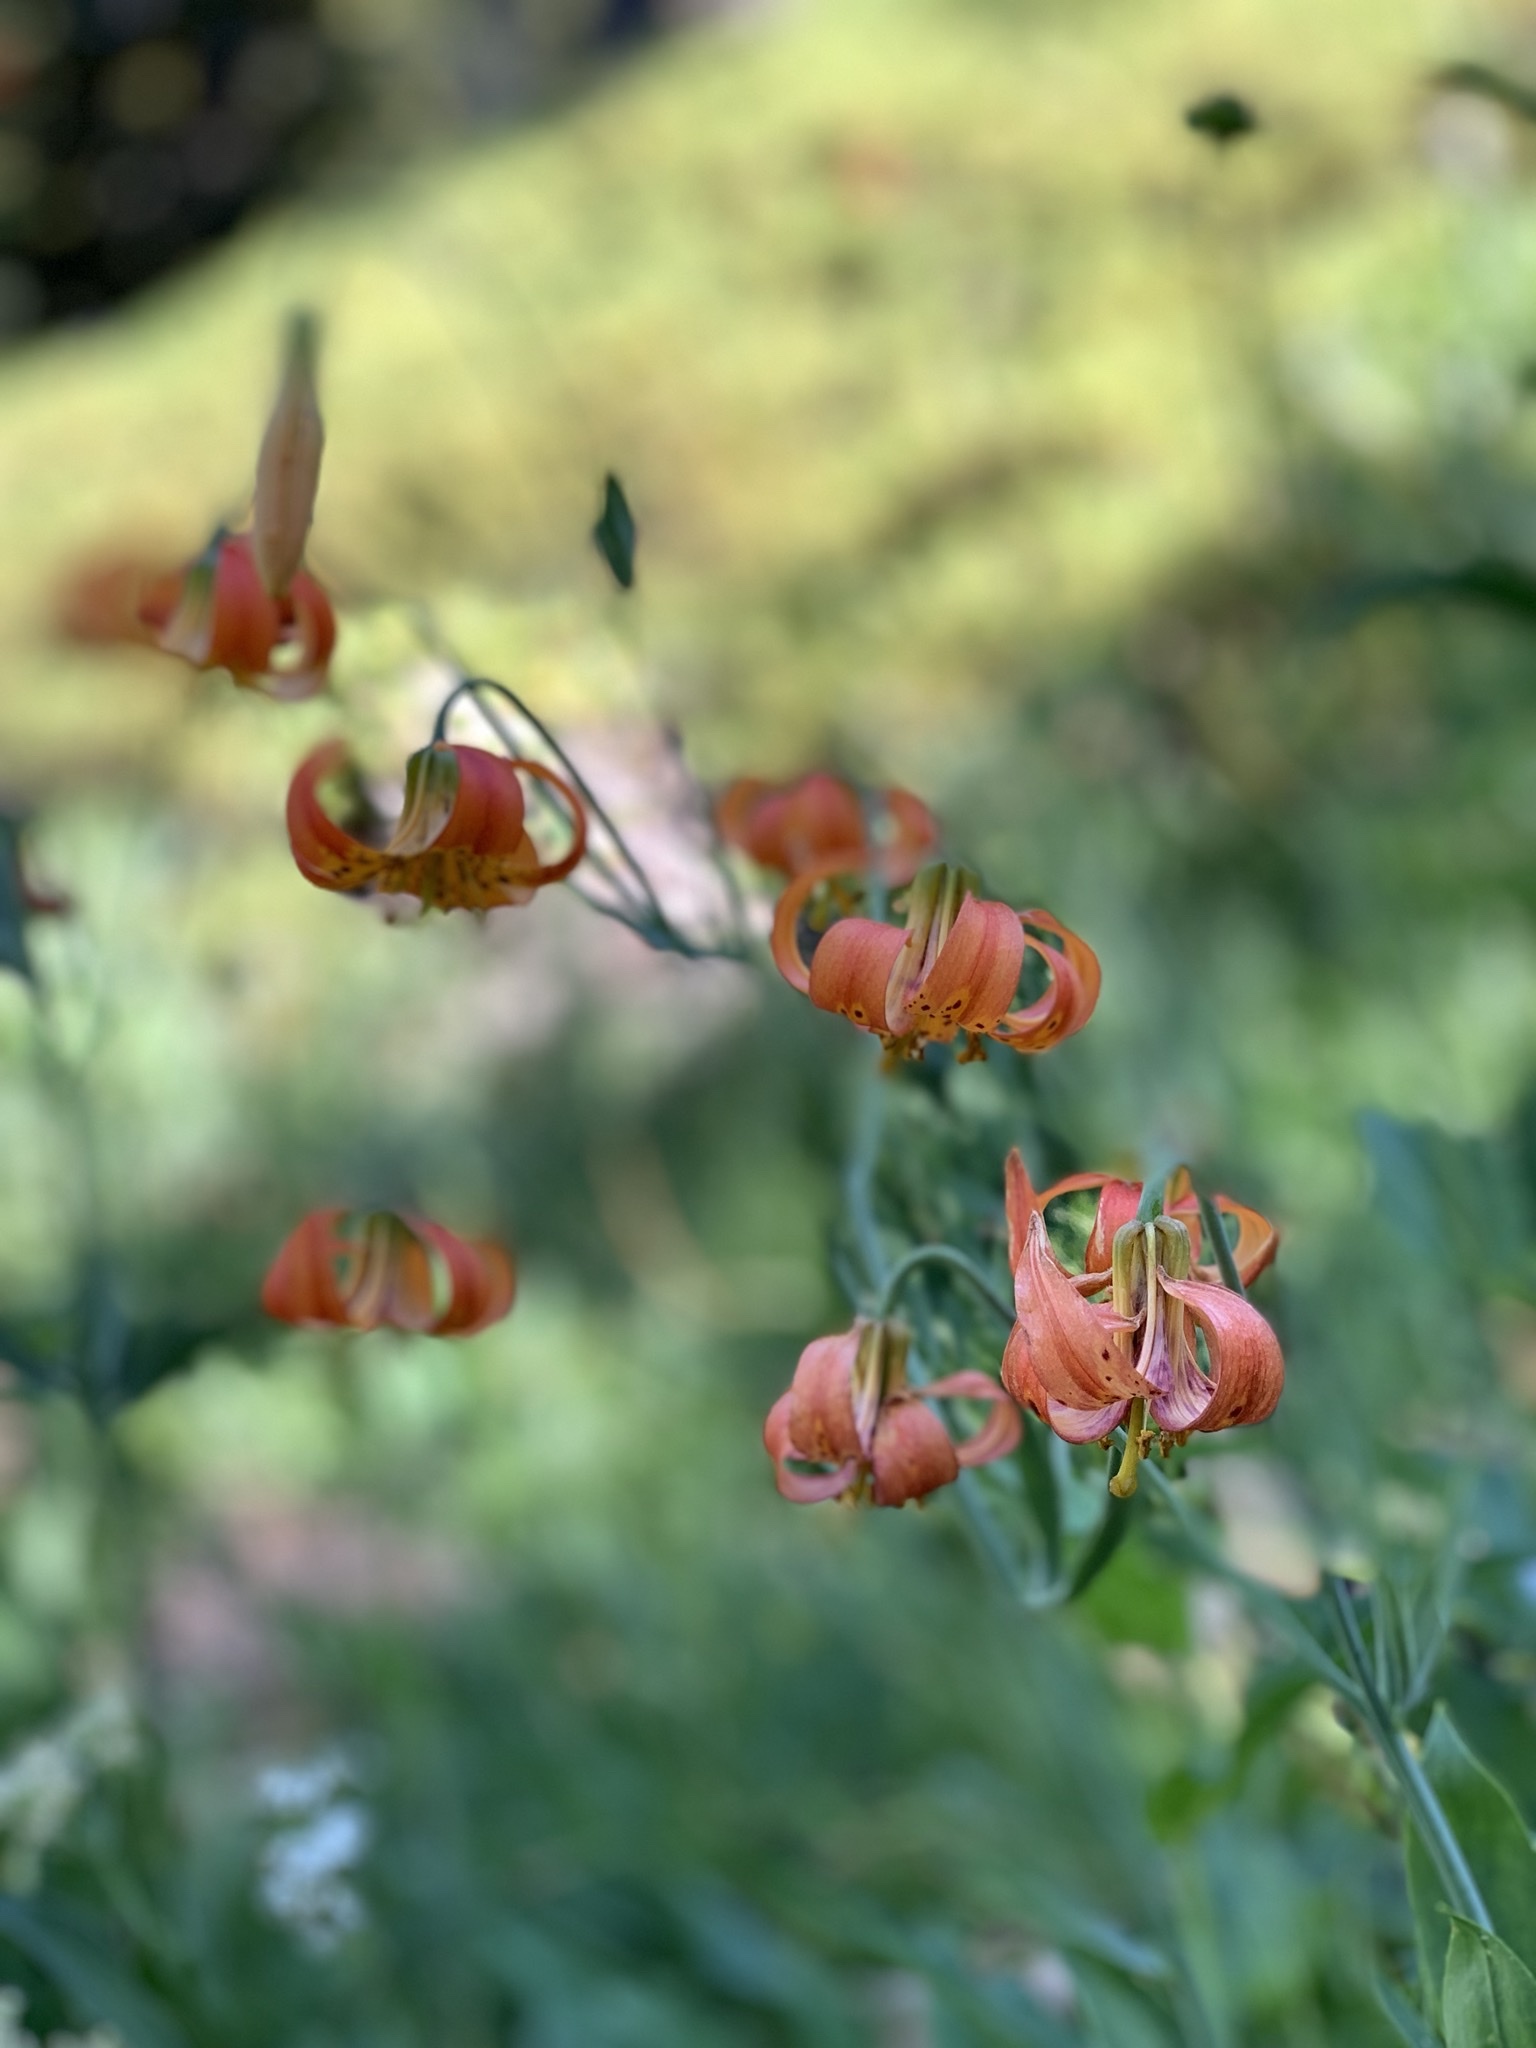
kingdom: Plantae
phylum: Tracheophyta
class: Liliopsida
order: Liliales
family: Liliaceae
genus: Lilium
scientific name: Lilium pardalinum
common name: Panther lily
